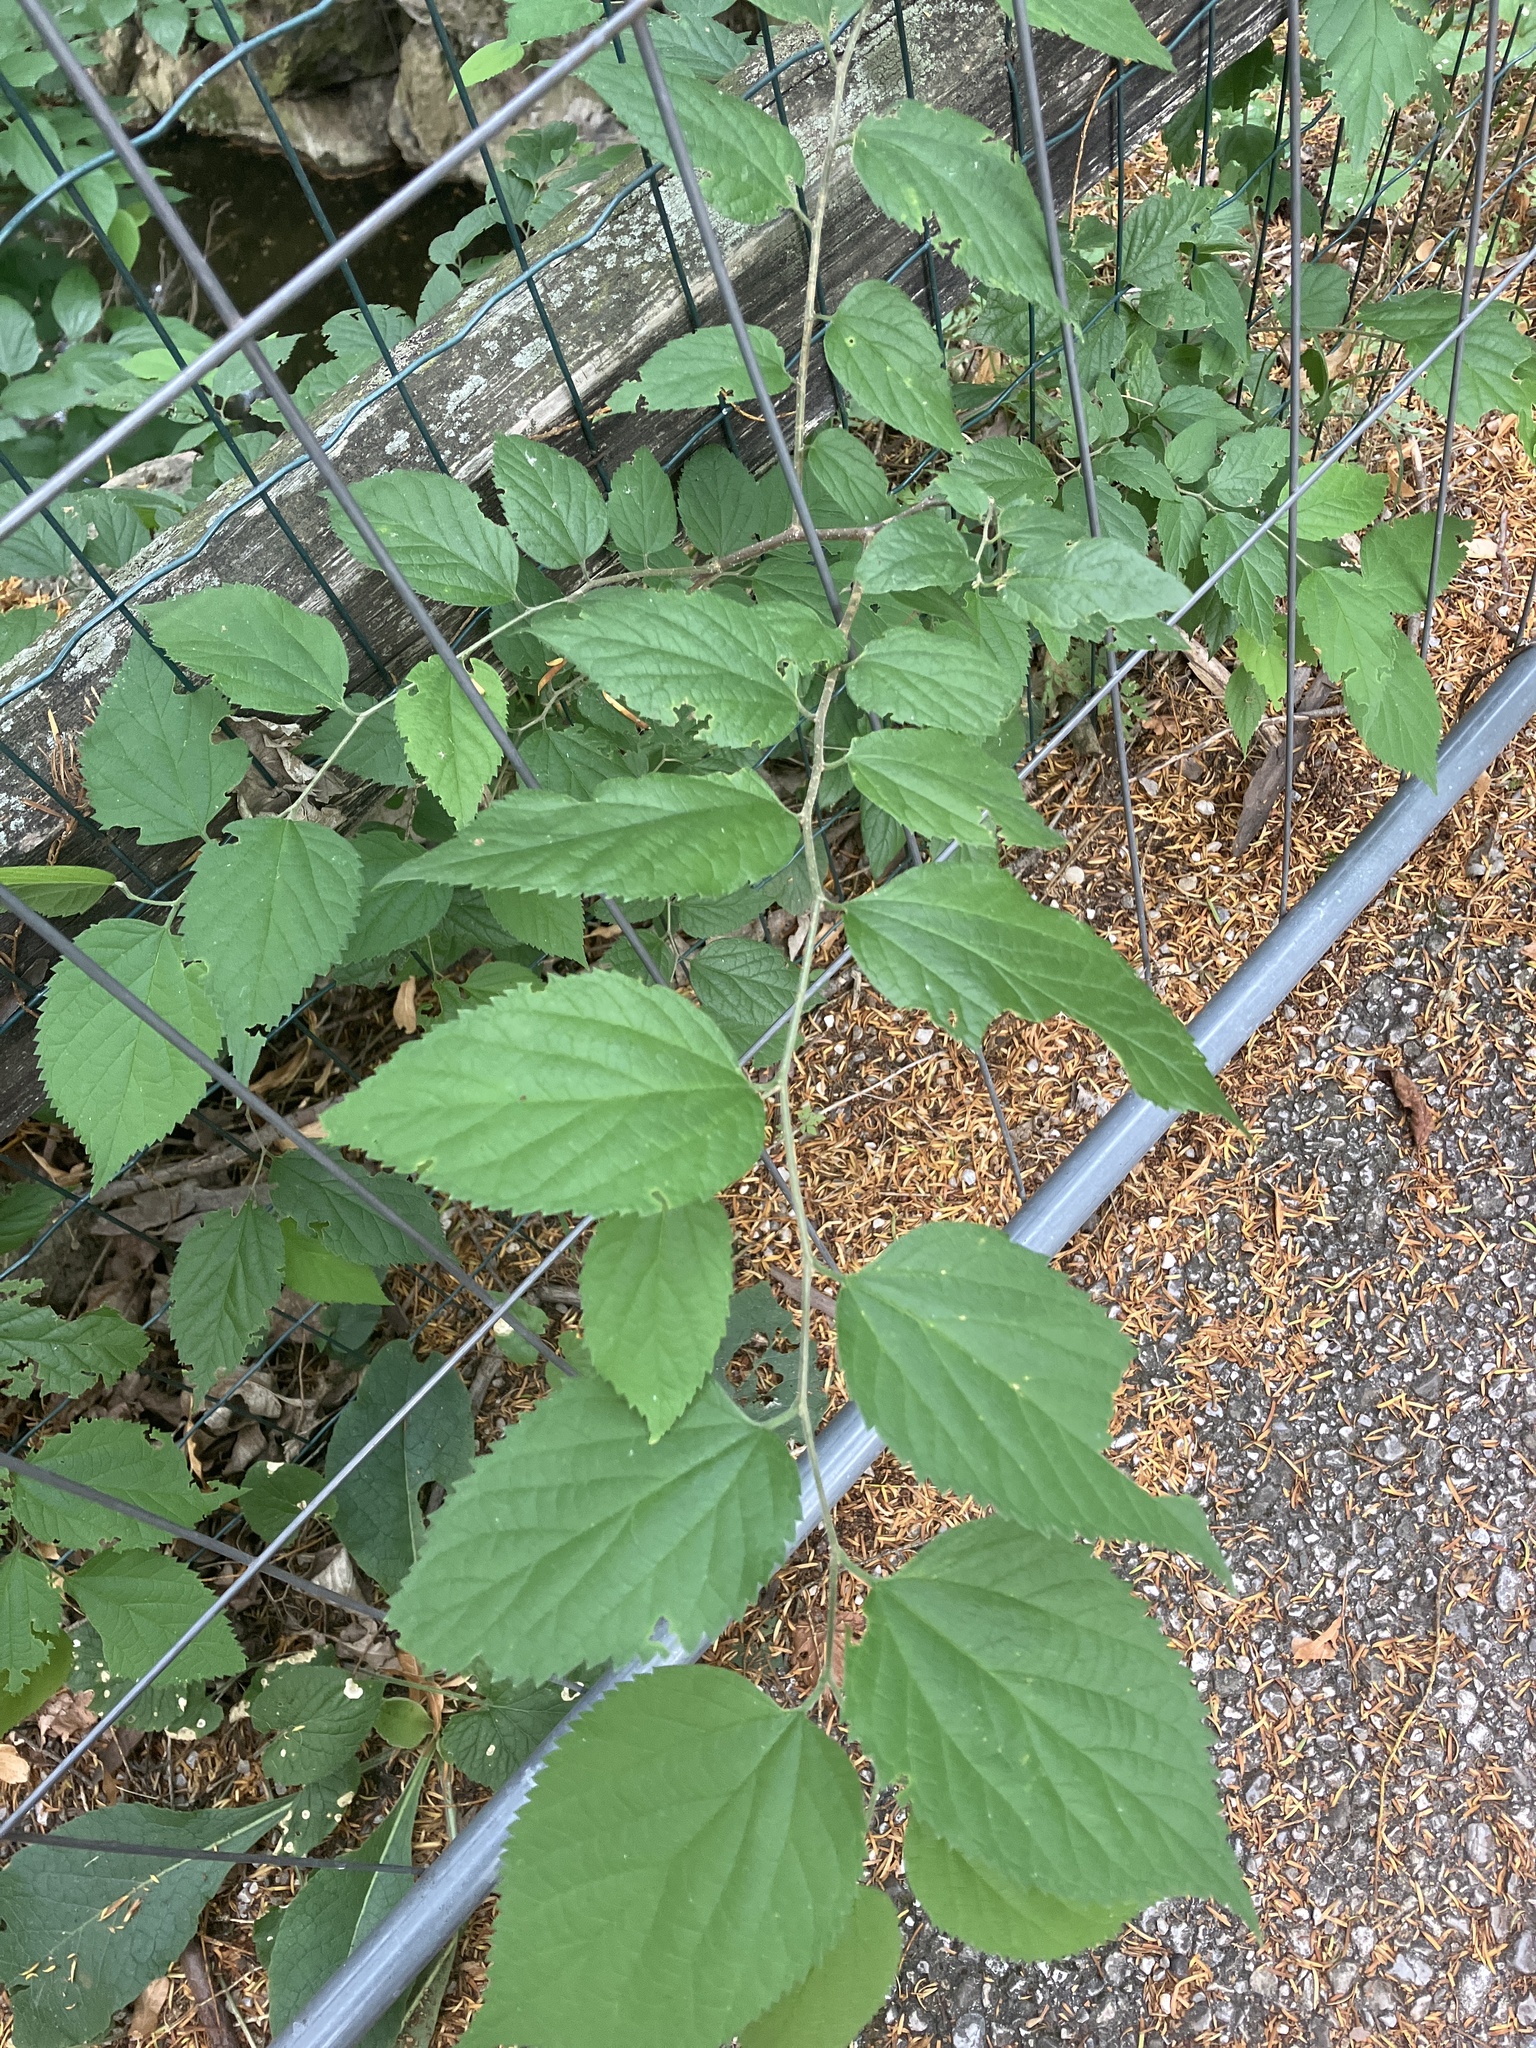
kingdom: Plantae
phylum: Tracheophyta
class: Magnoliopsida
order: Rosales
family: Cannabaceae
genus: Celtis
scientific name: Celtis australis
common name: European hackberry
